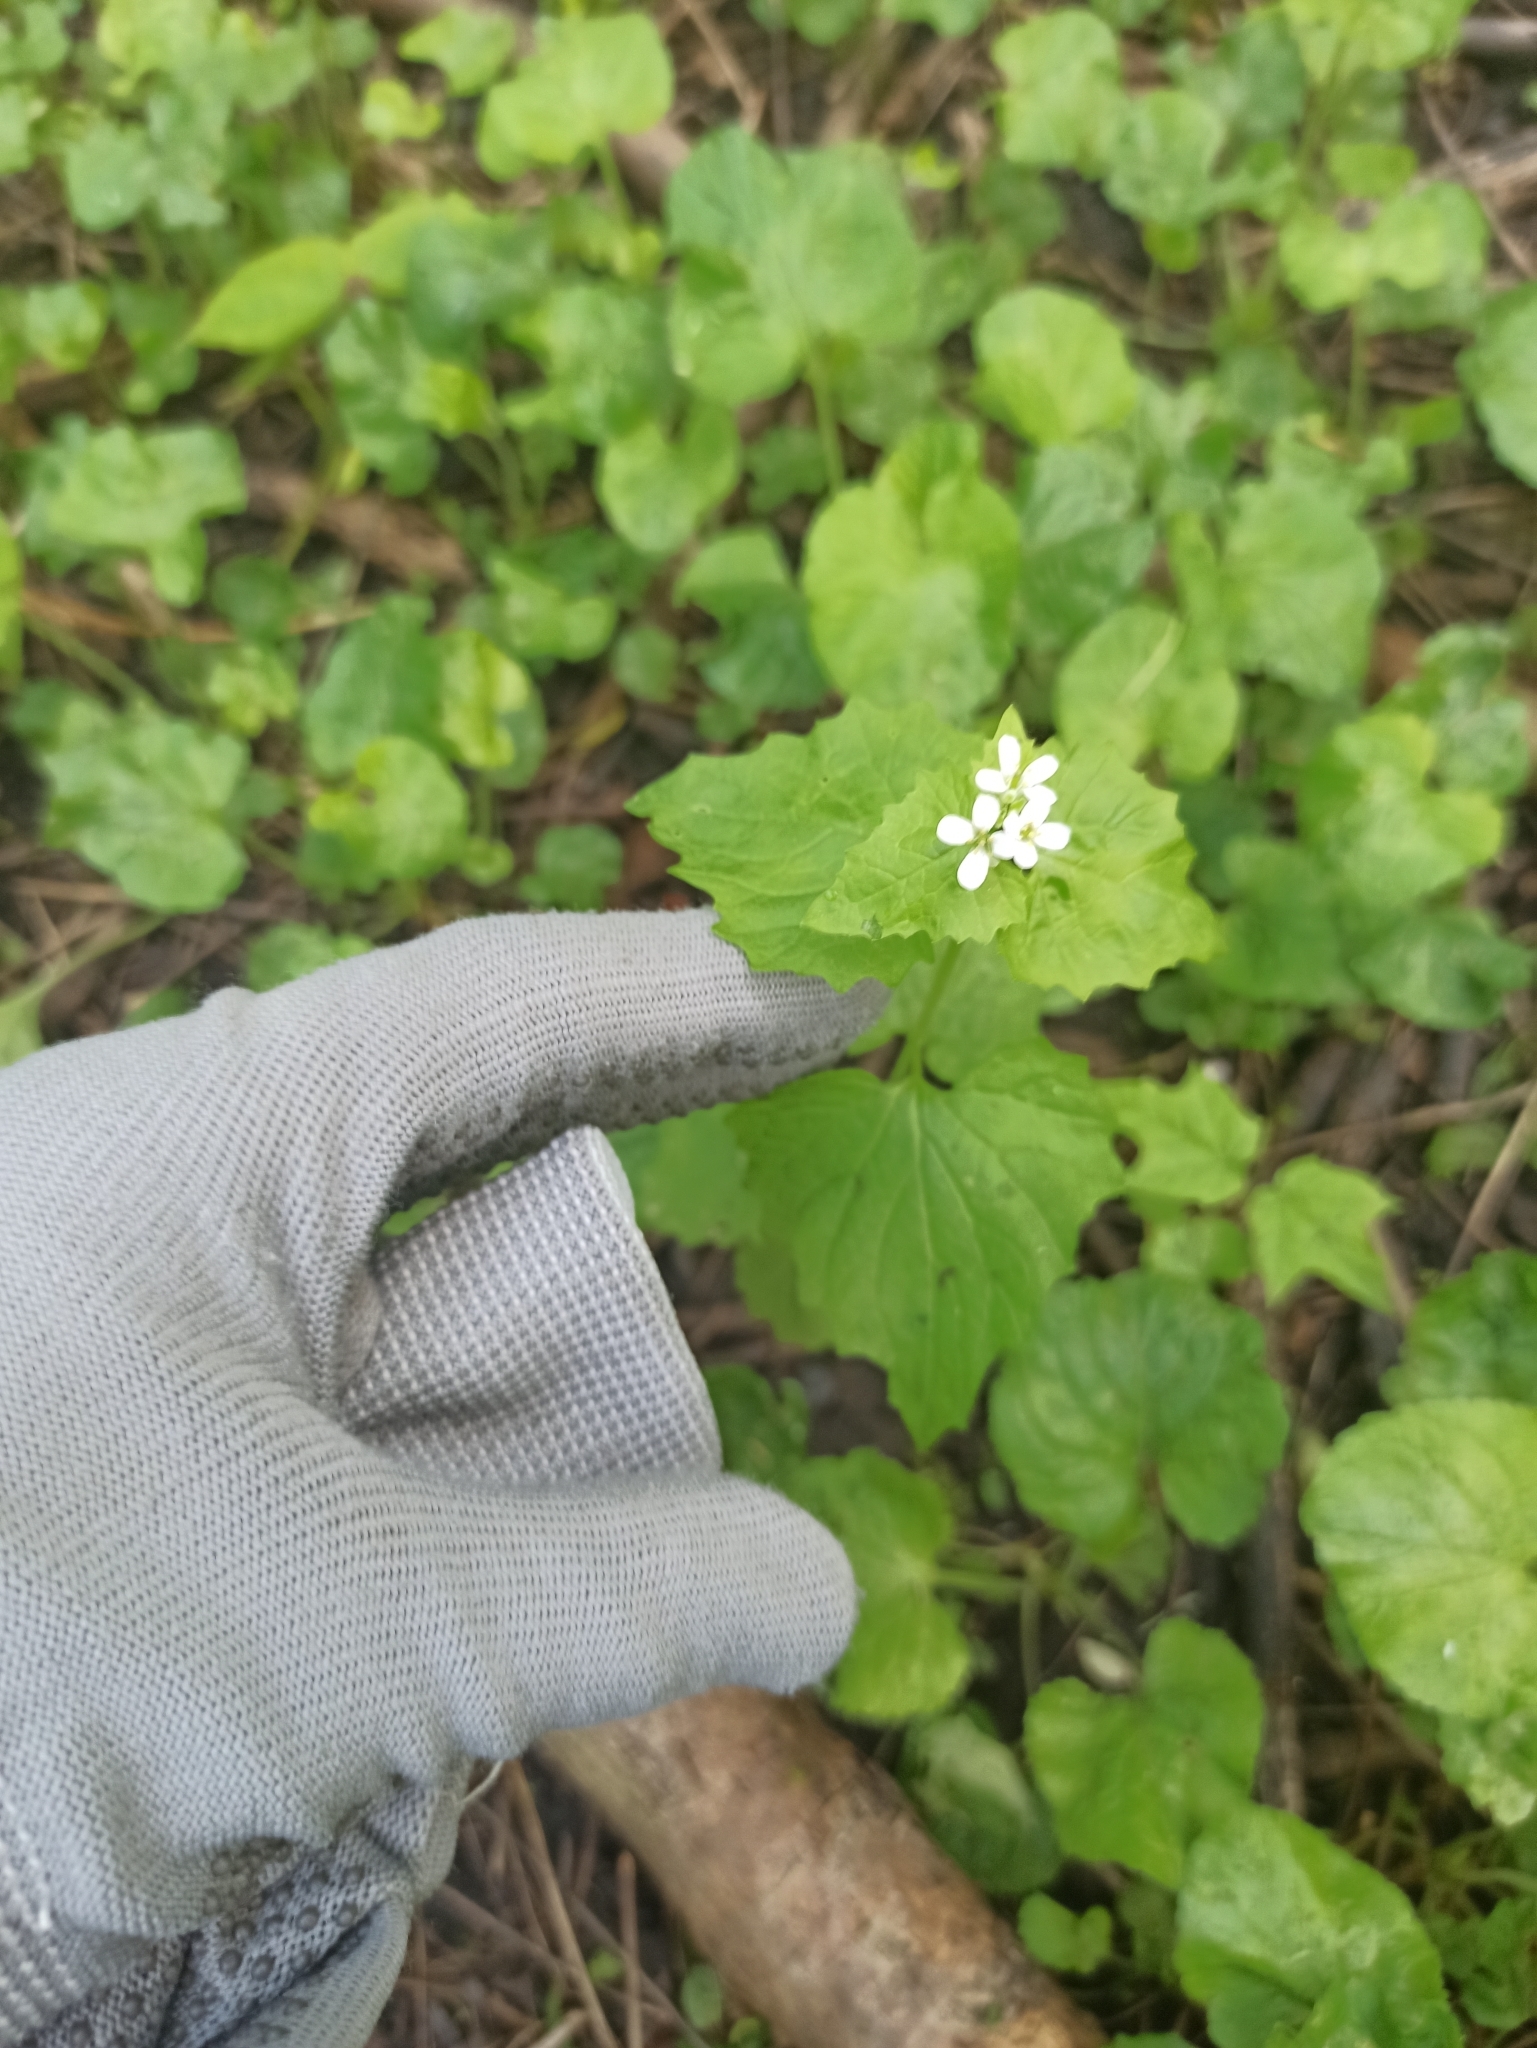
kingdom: Plantae
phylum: Tracheophyta
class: Magnoliopsida
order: Brassicales
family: Brassicaceae
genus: Alliaria
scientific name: Alliaria petiolata
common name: Garlic mustard
